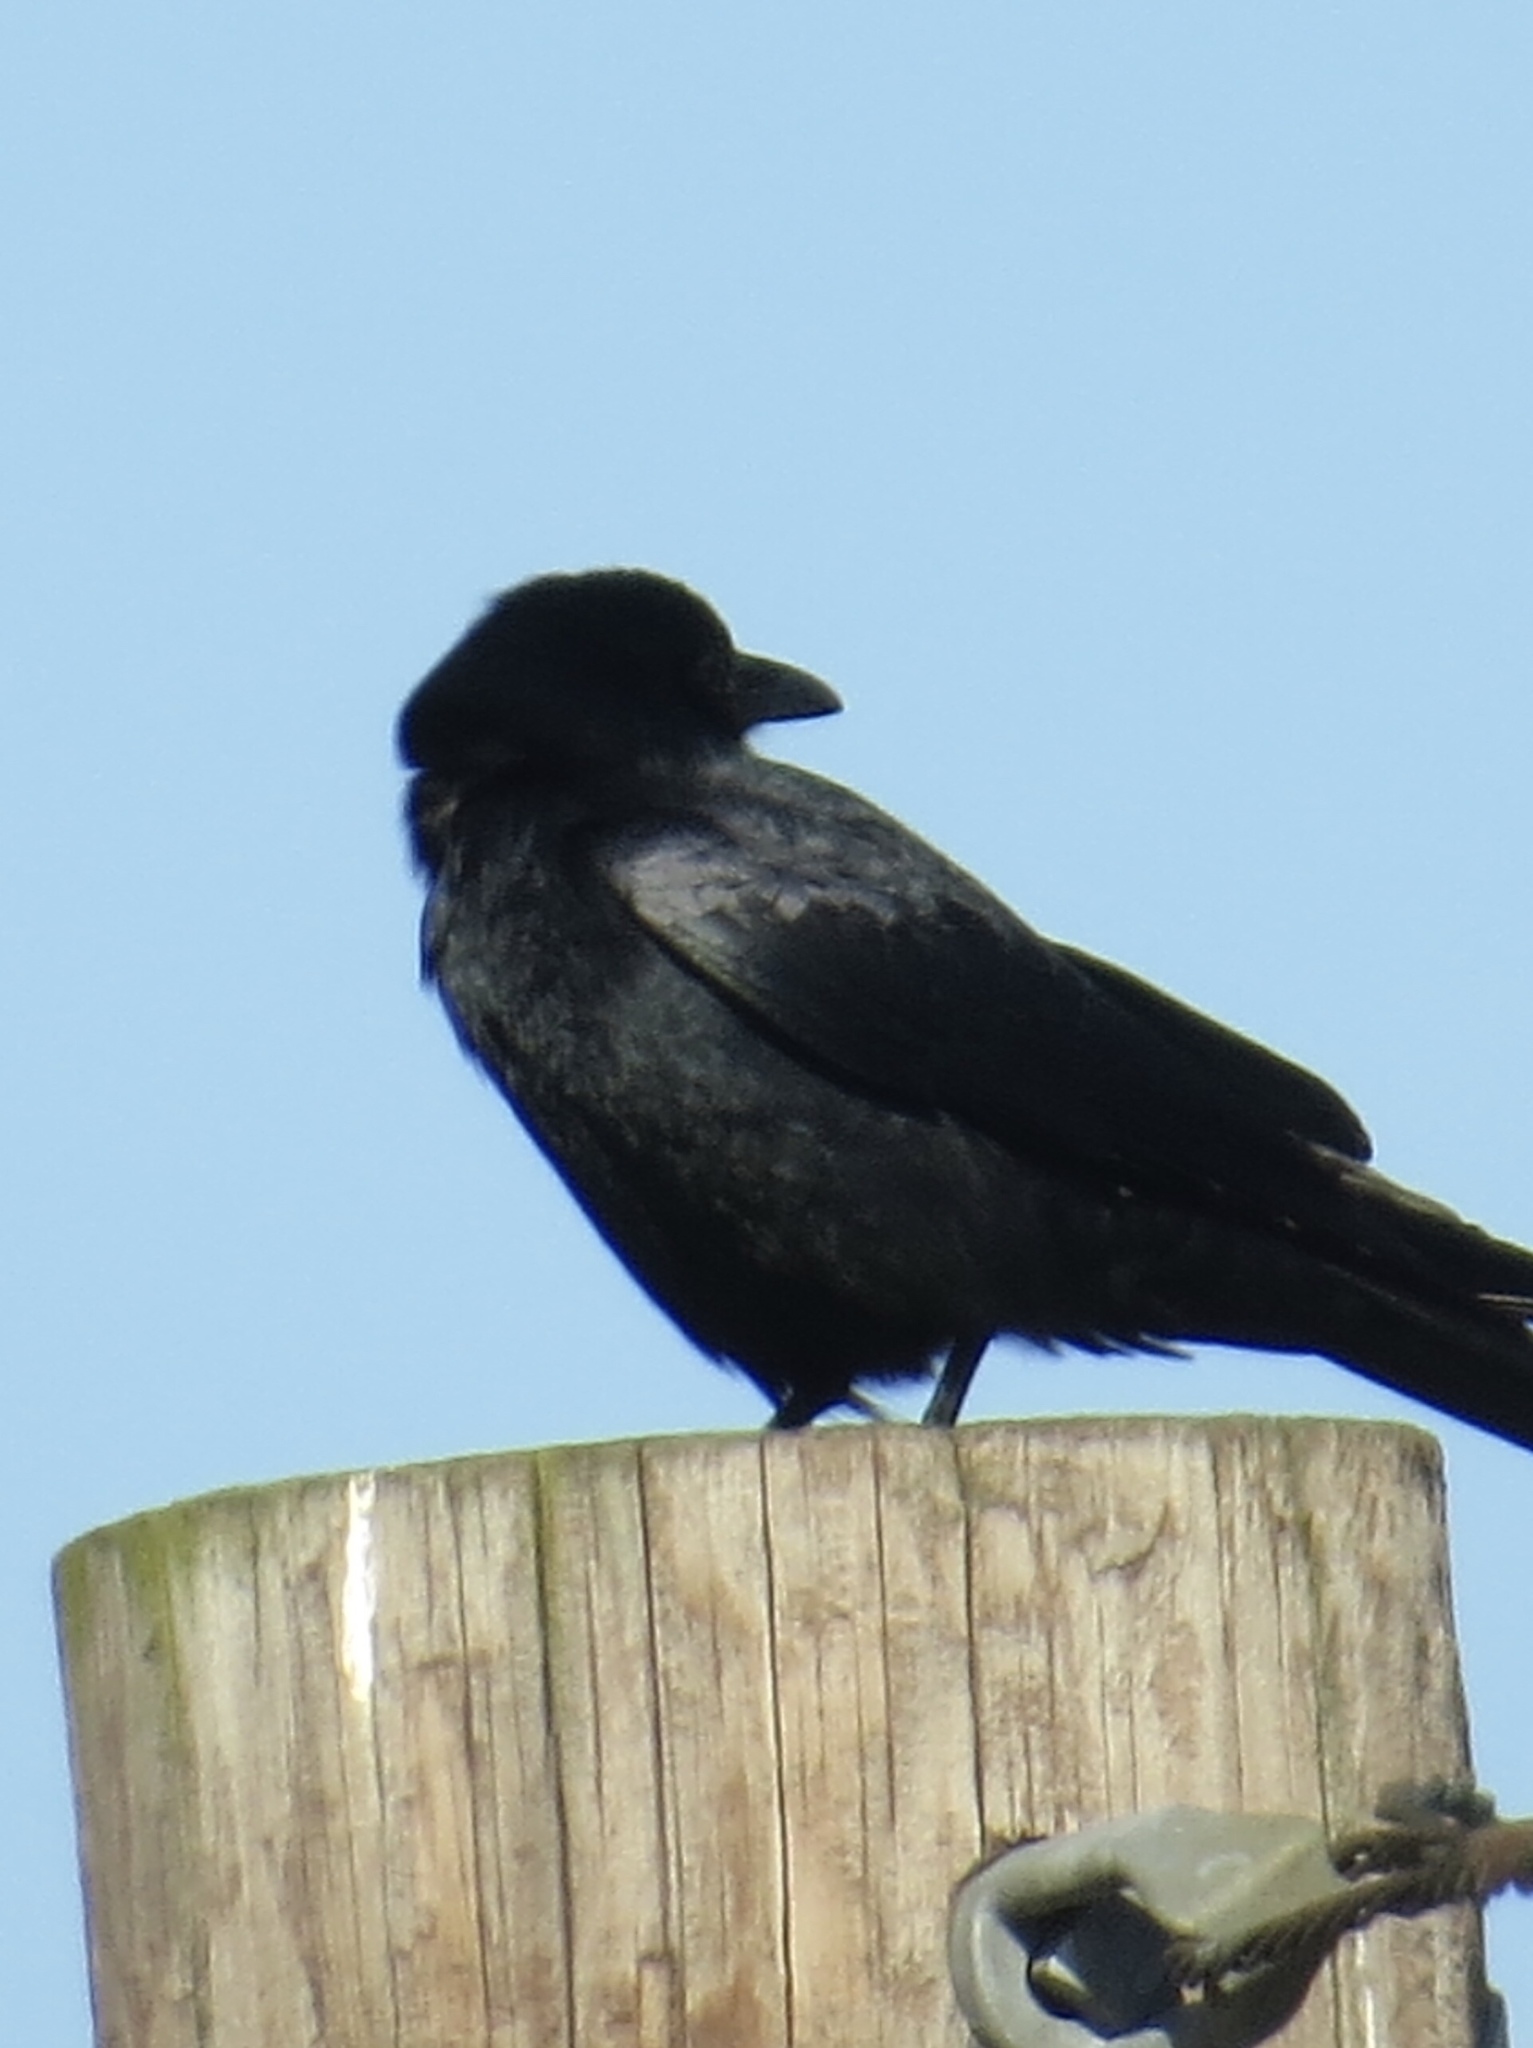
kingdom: Animalia
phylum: Chordata
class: Aves
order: Passeriformes
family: Corvidae
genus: Corvus
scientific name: Corvus brachyrhynchos
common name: American crow
